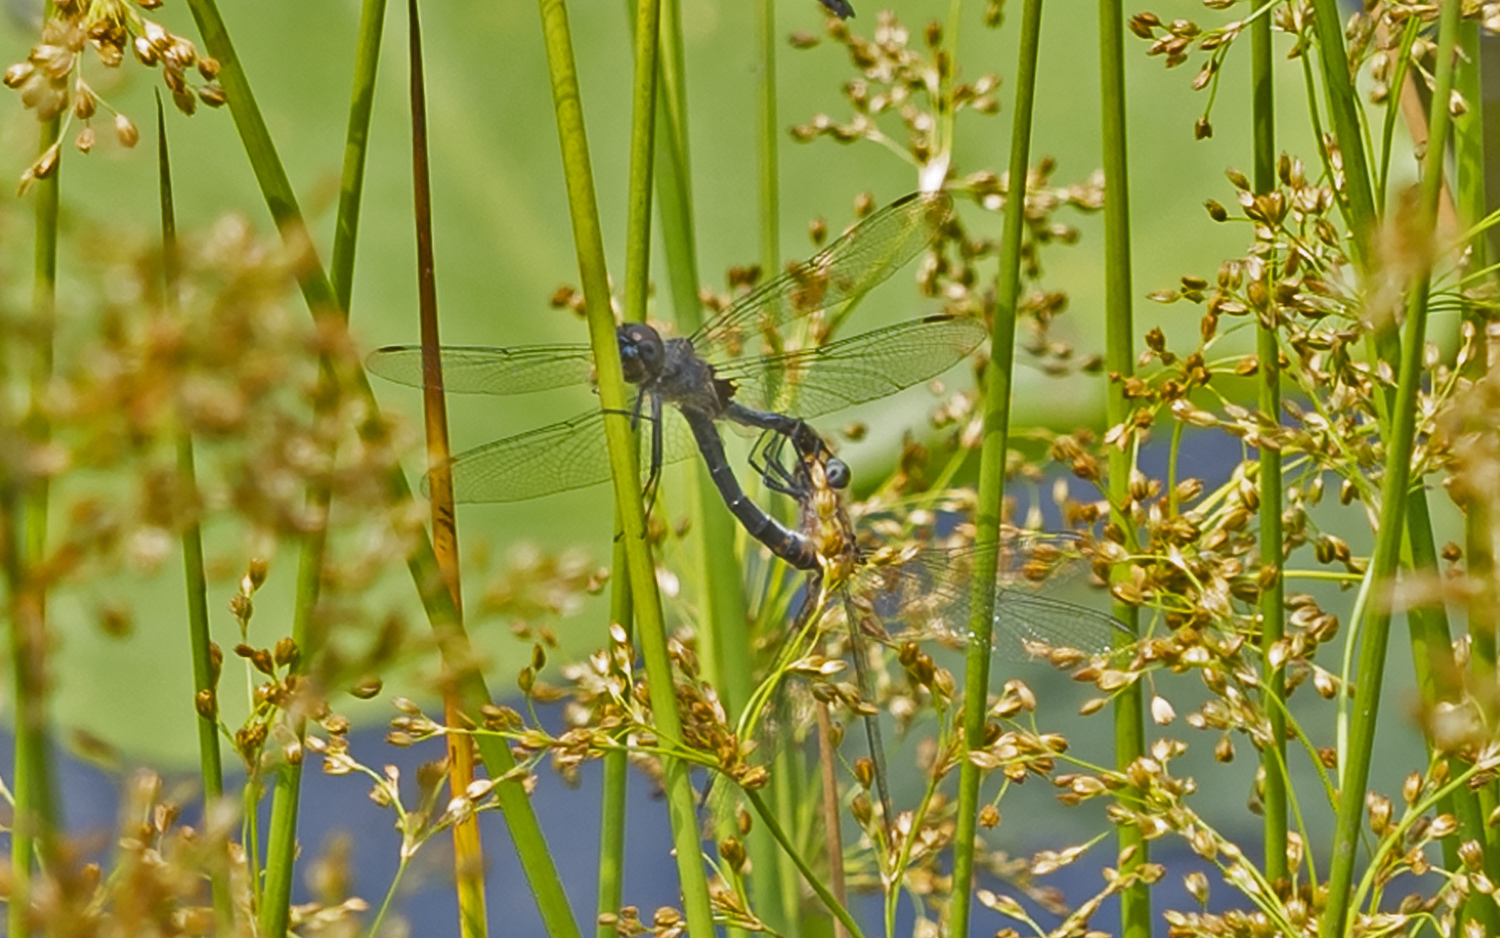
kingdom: Animalia
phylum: Arthropoda
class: Insecta
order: Odonata
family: Libellulidae
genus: Celithemis
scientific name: Celithemis verna
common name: Double-ringed pennant
